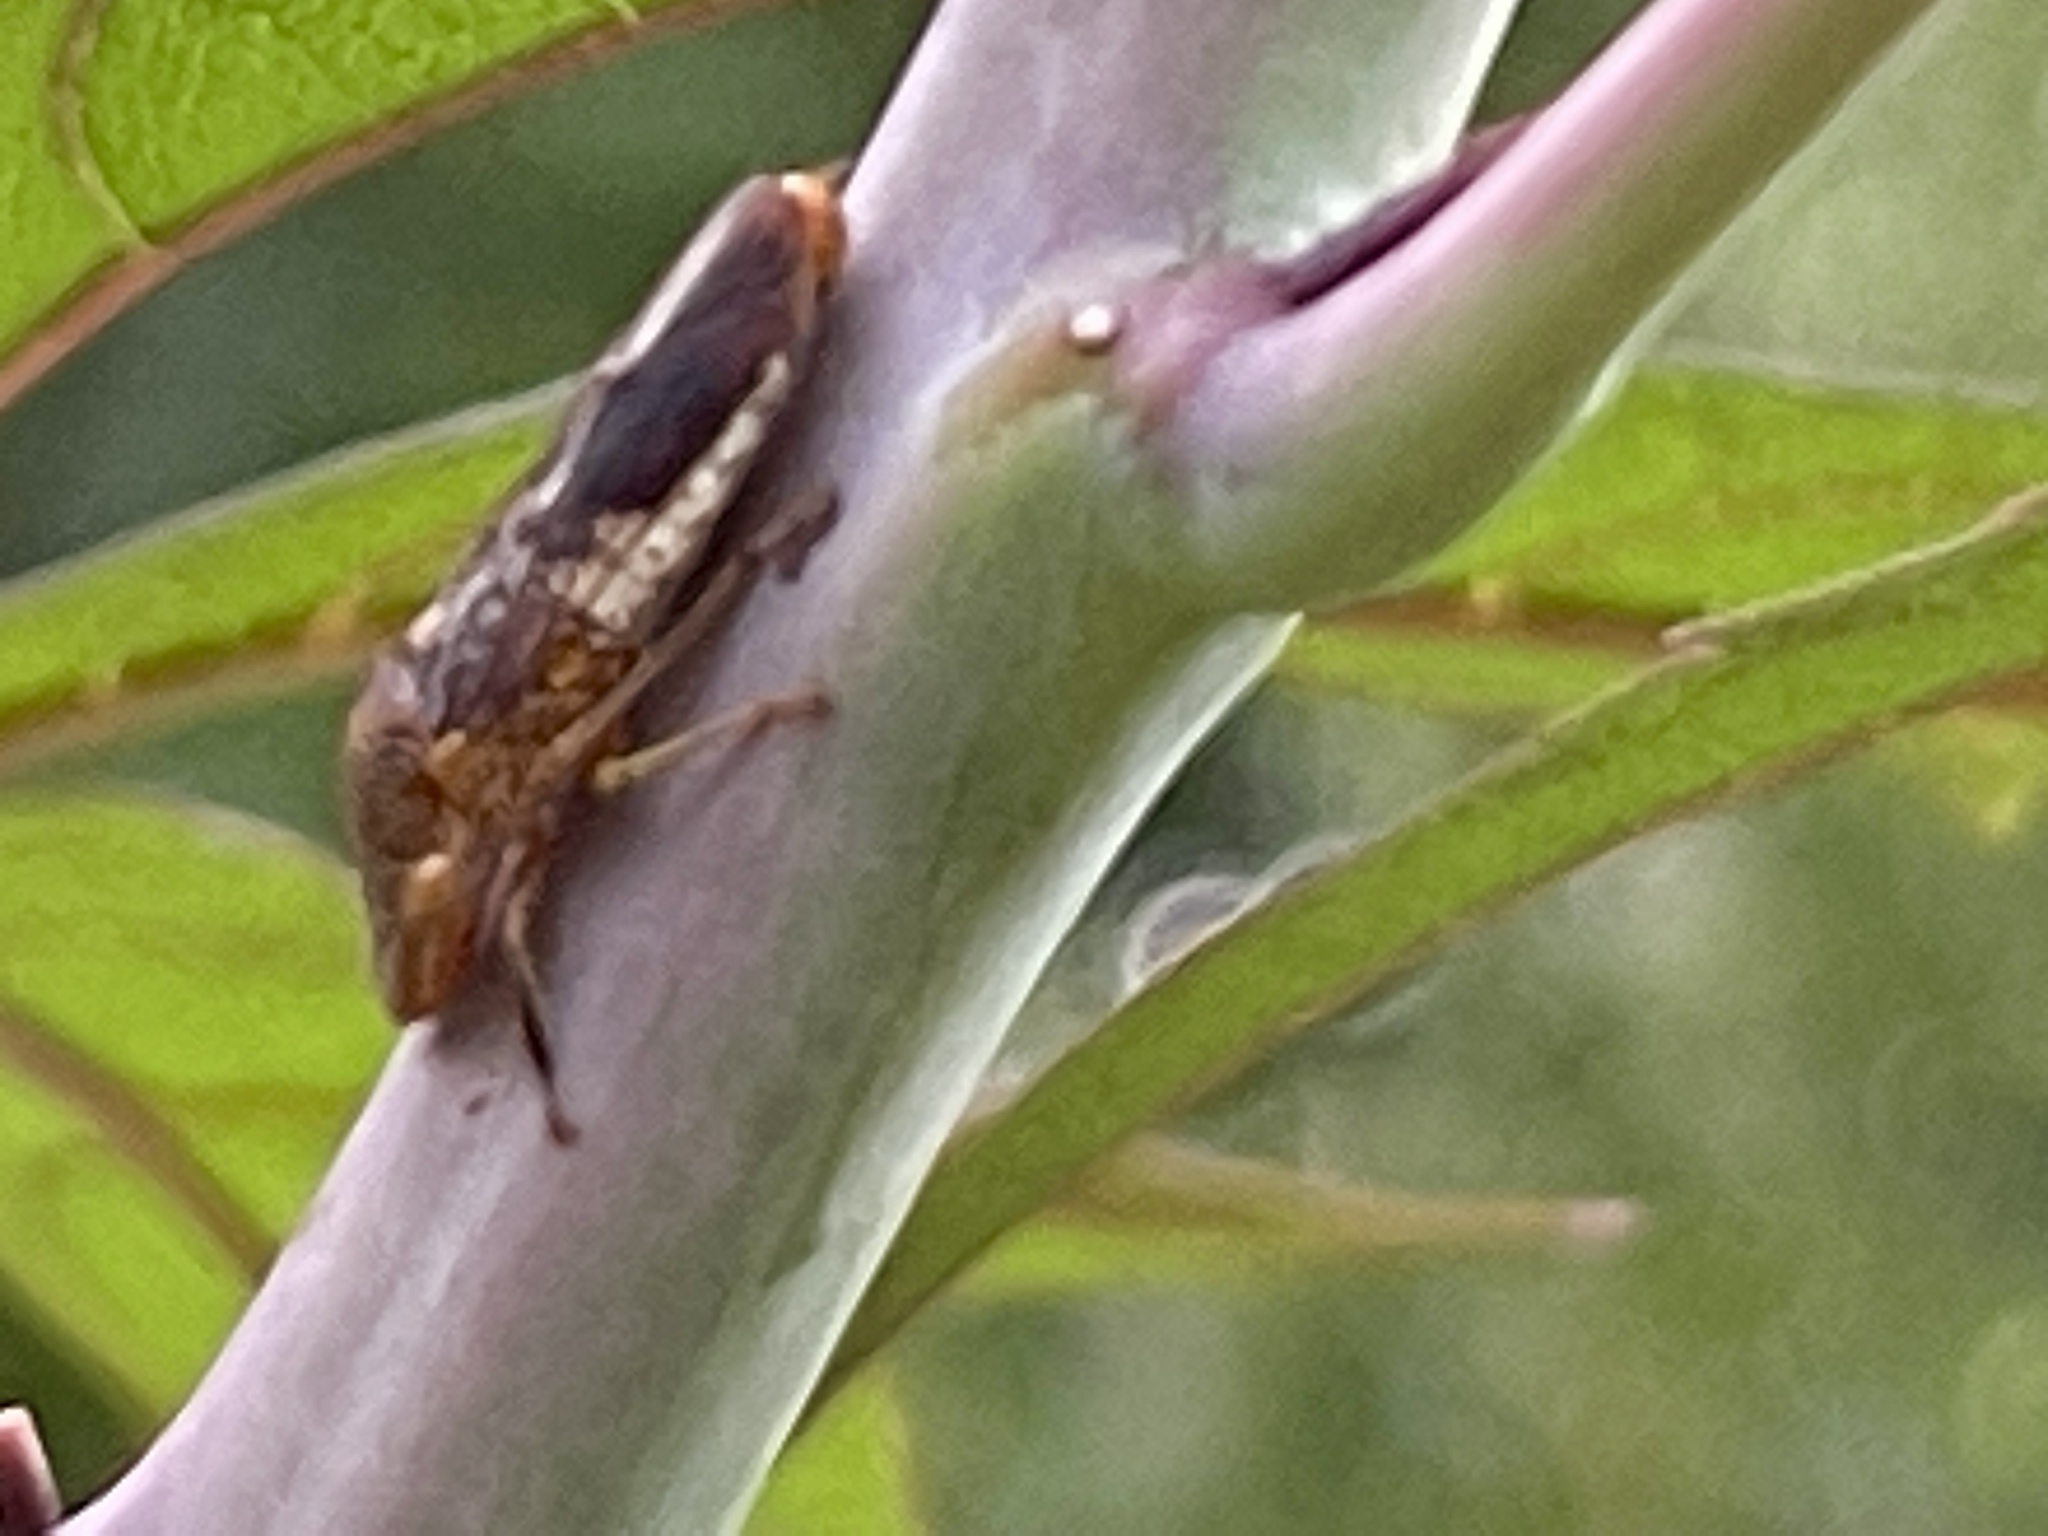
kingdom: Animalia
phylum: Arthropoda
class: Insecta
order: Hemiptera
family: Cicadellidae
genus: Homalodisca
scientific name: Homalodisca vitripennis
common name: Glassy-winged sharpshooter
